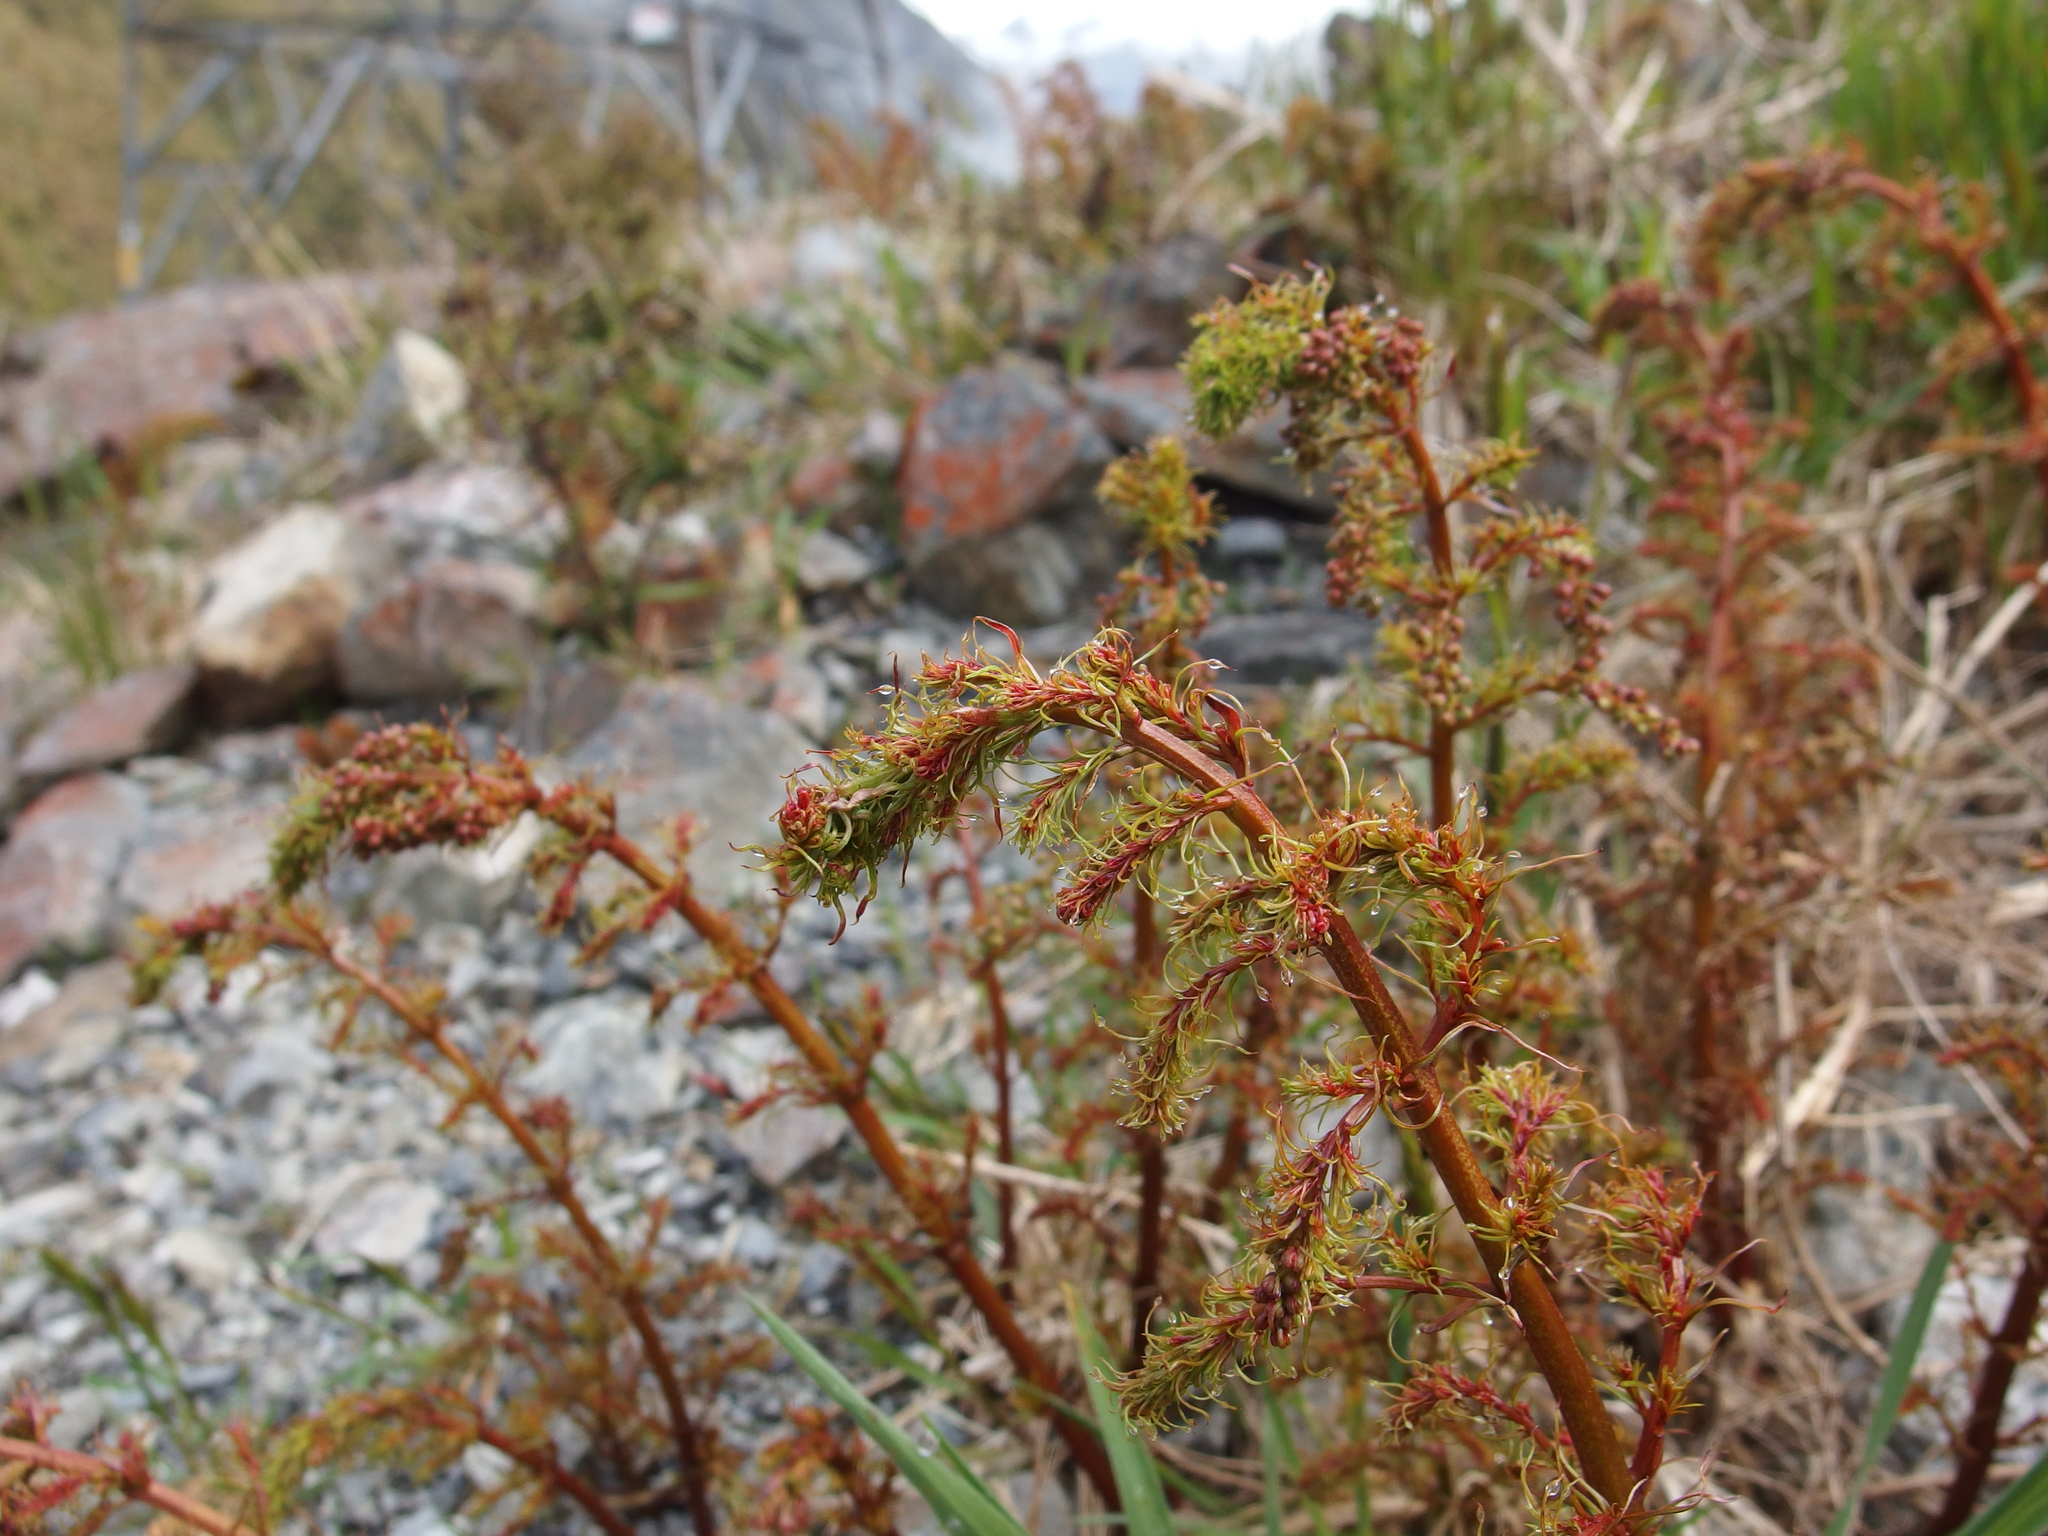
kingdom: Plantae
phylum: Tracheophyta
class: Magnoliopsida
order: Cucurbitales
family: Coriariaceae
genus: Coriaria
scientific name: Coriaria angustissima
